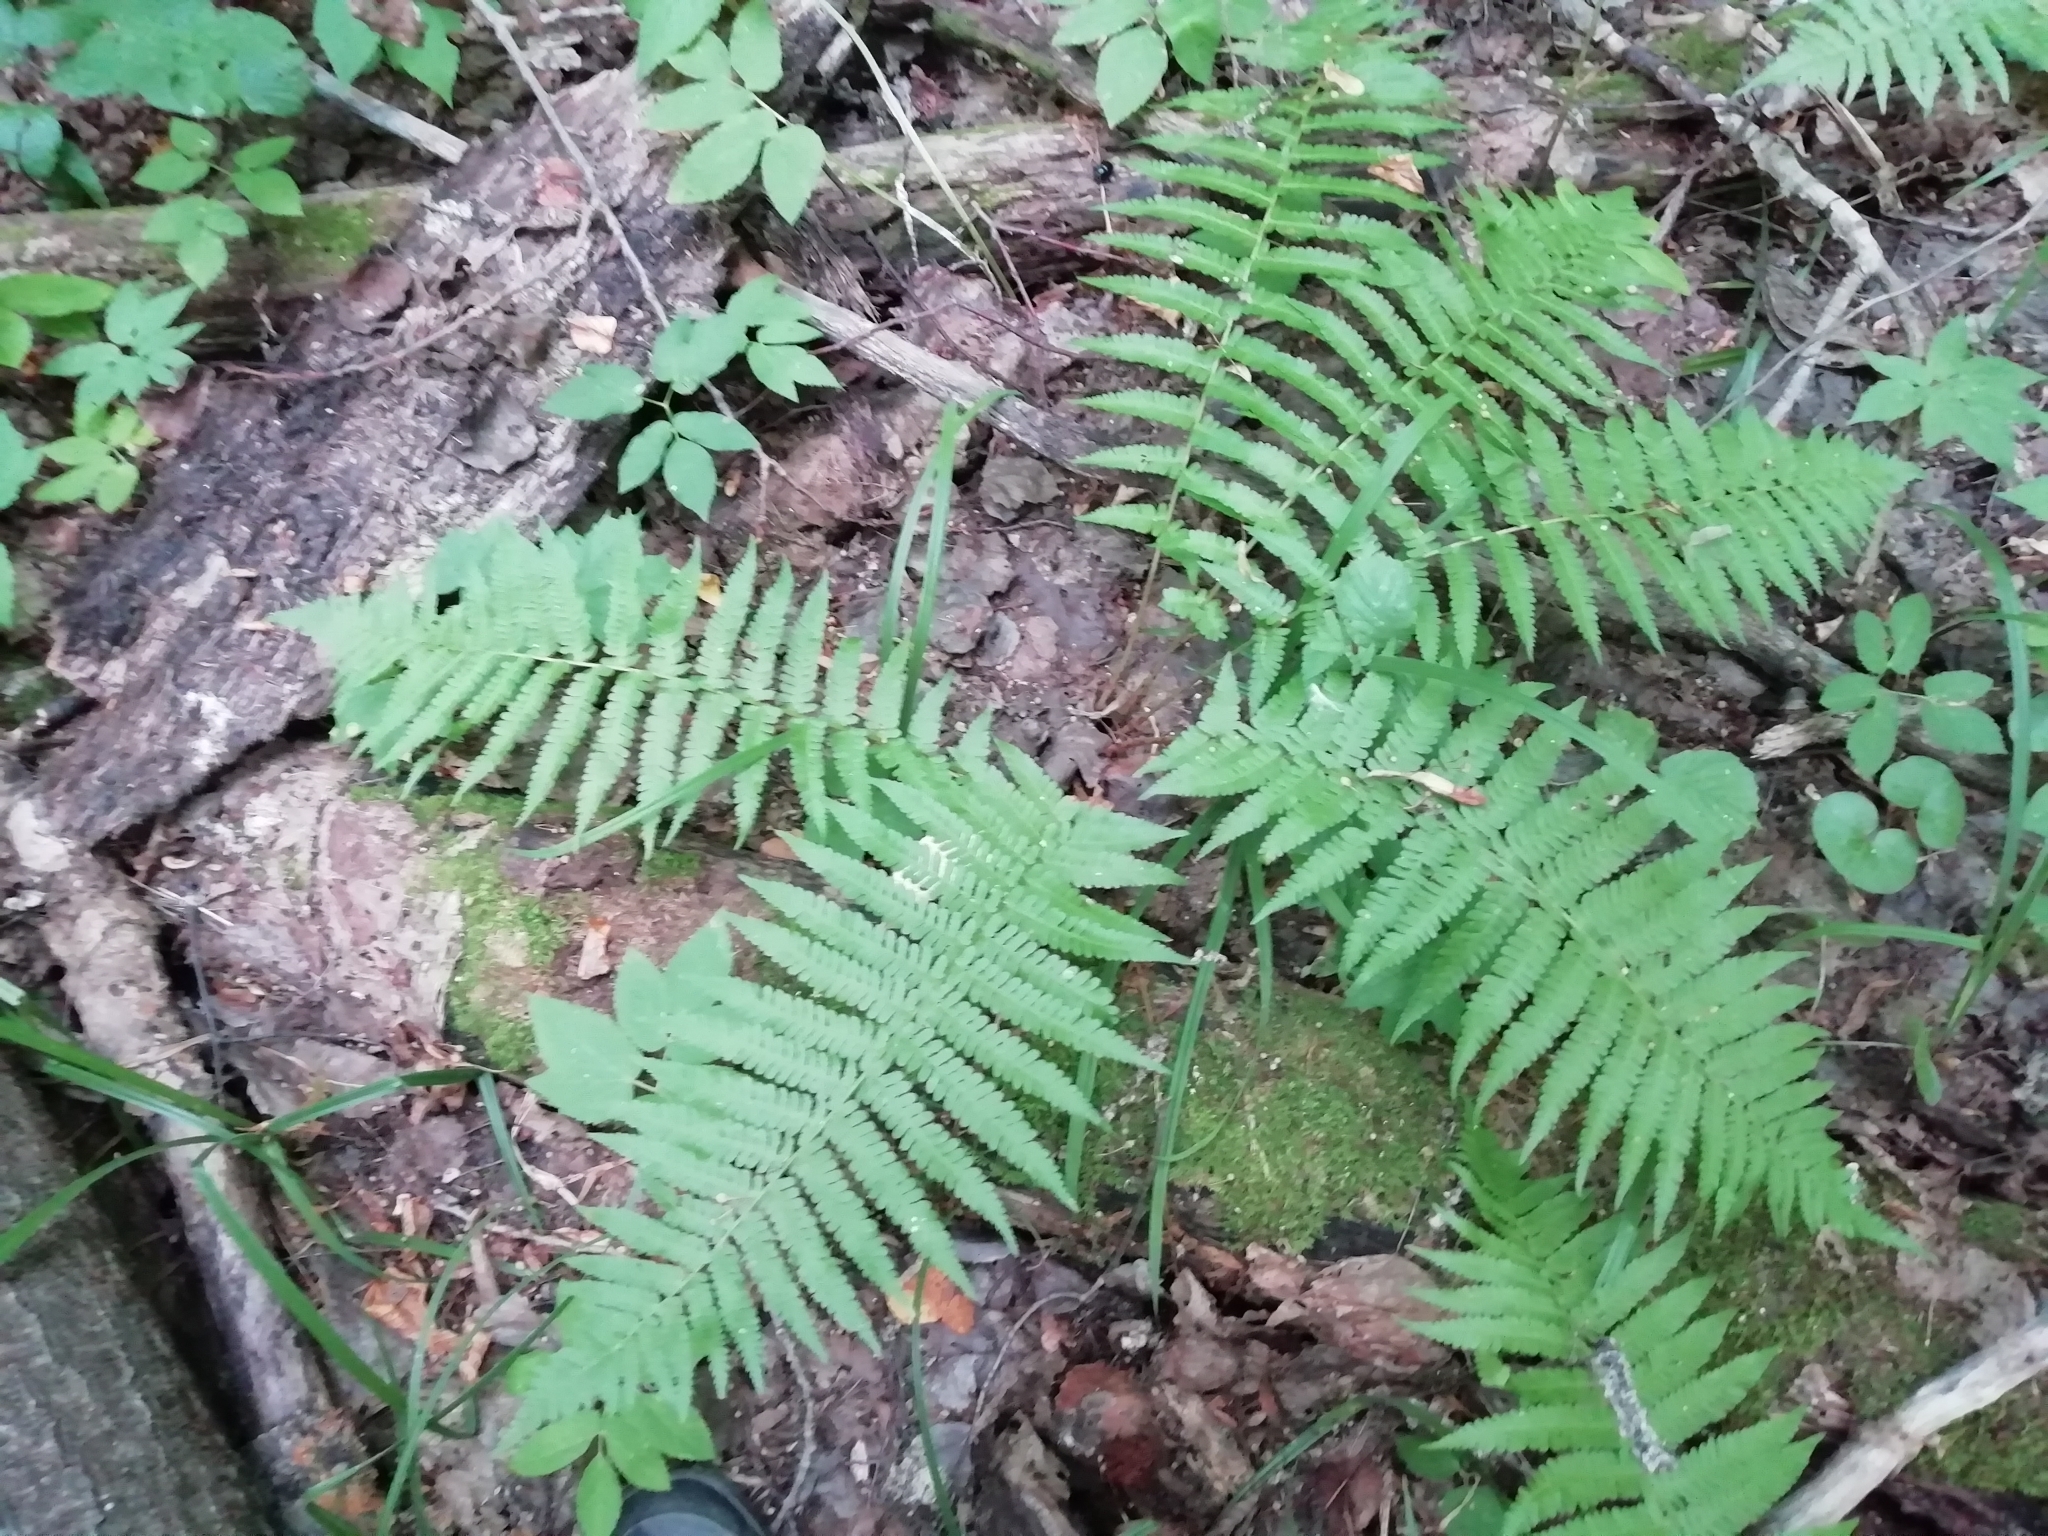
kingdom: Plantae
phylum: Tracheophyta
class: Polypodiopsida
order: Polypodiales
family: Dryopteridaceae
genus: Dryopteris
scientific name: Dryopteris filix-mas
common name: Male fern
